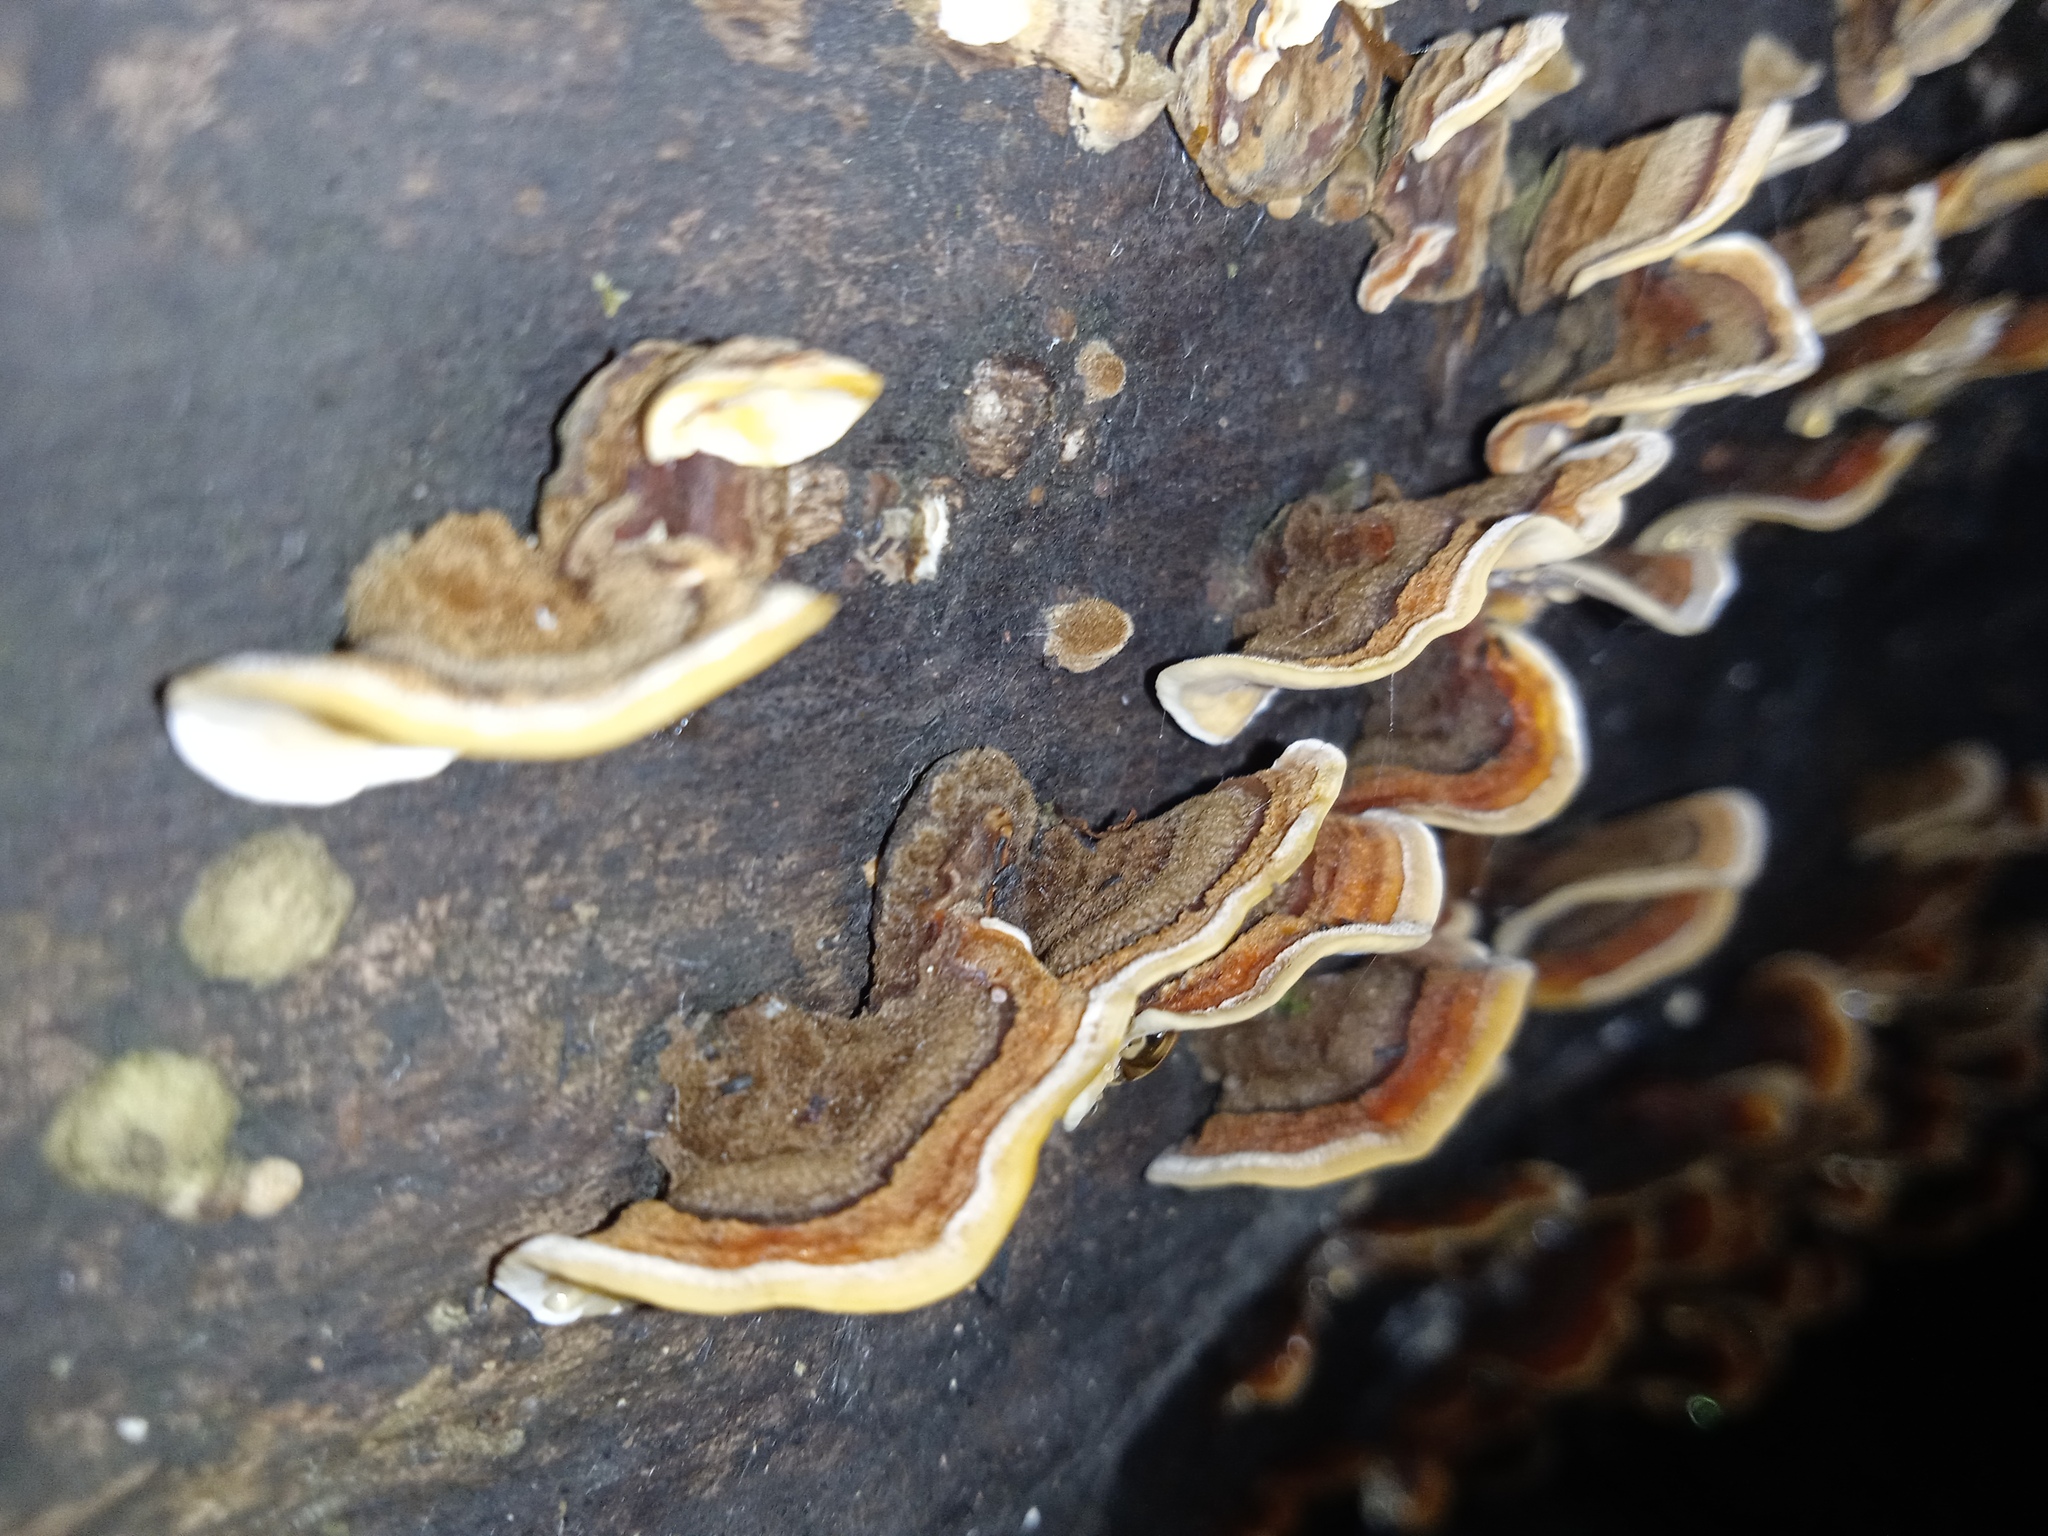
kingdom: Fungi
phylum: Basidiomycota
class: Agaricomycetes
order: Russulales
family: Stereaceae
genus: Stereum
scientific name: Stereum subtomentosum
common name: Yellowing curtain crust
